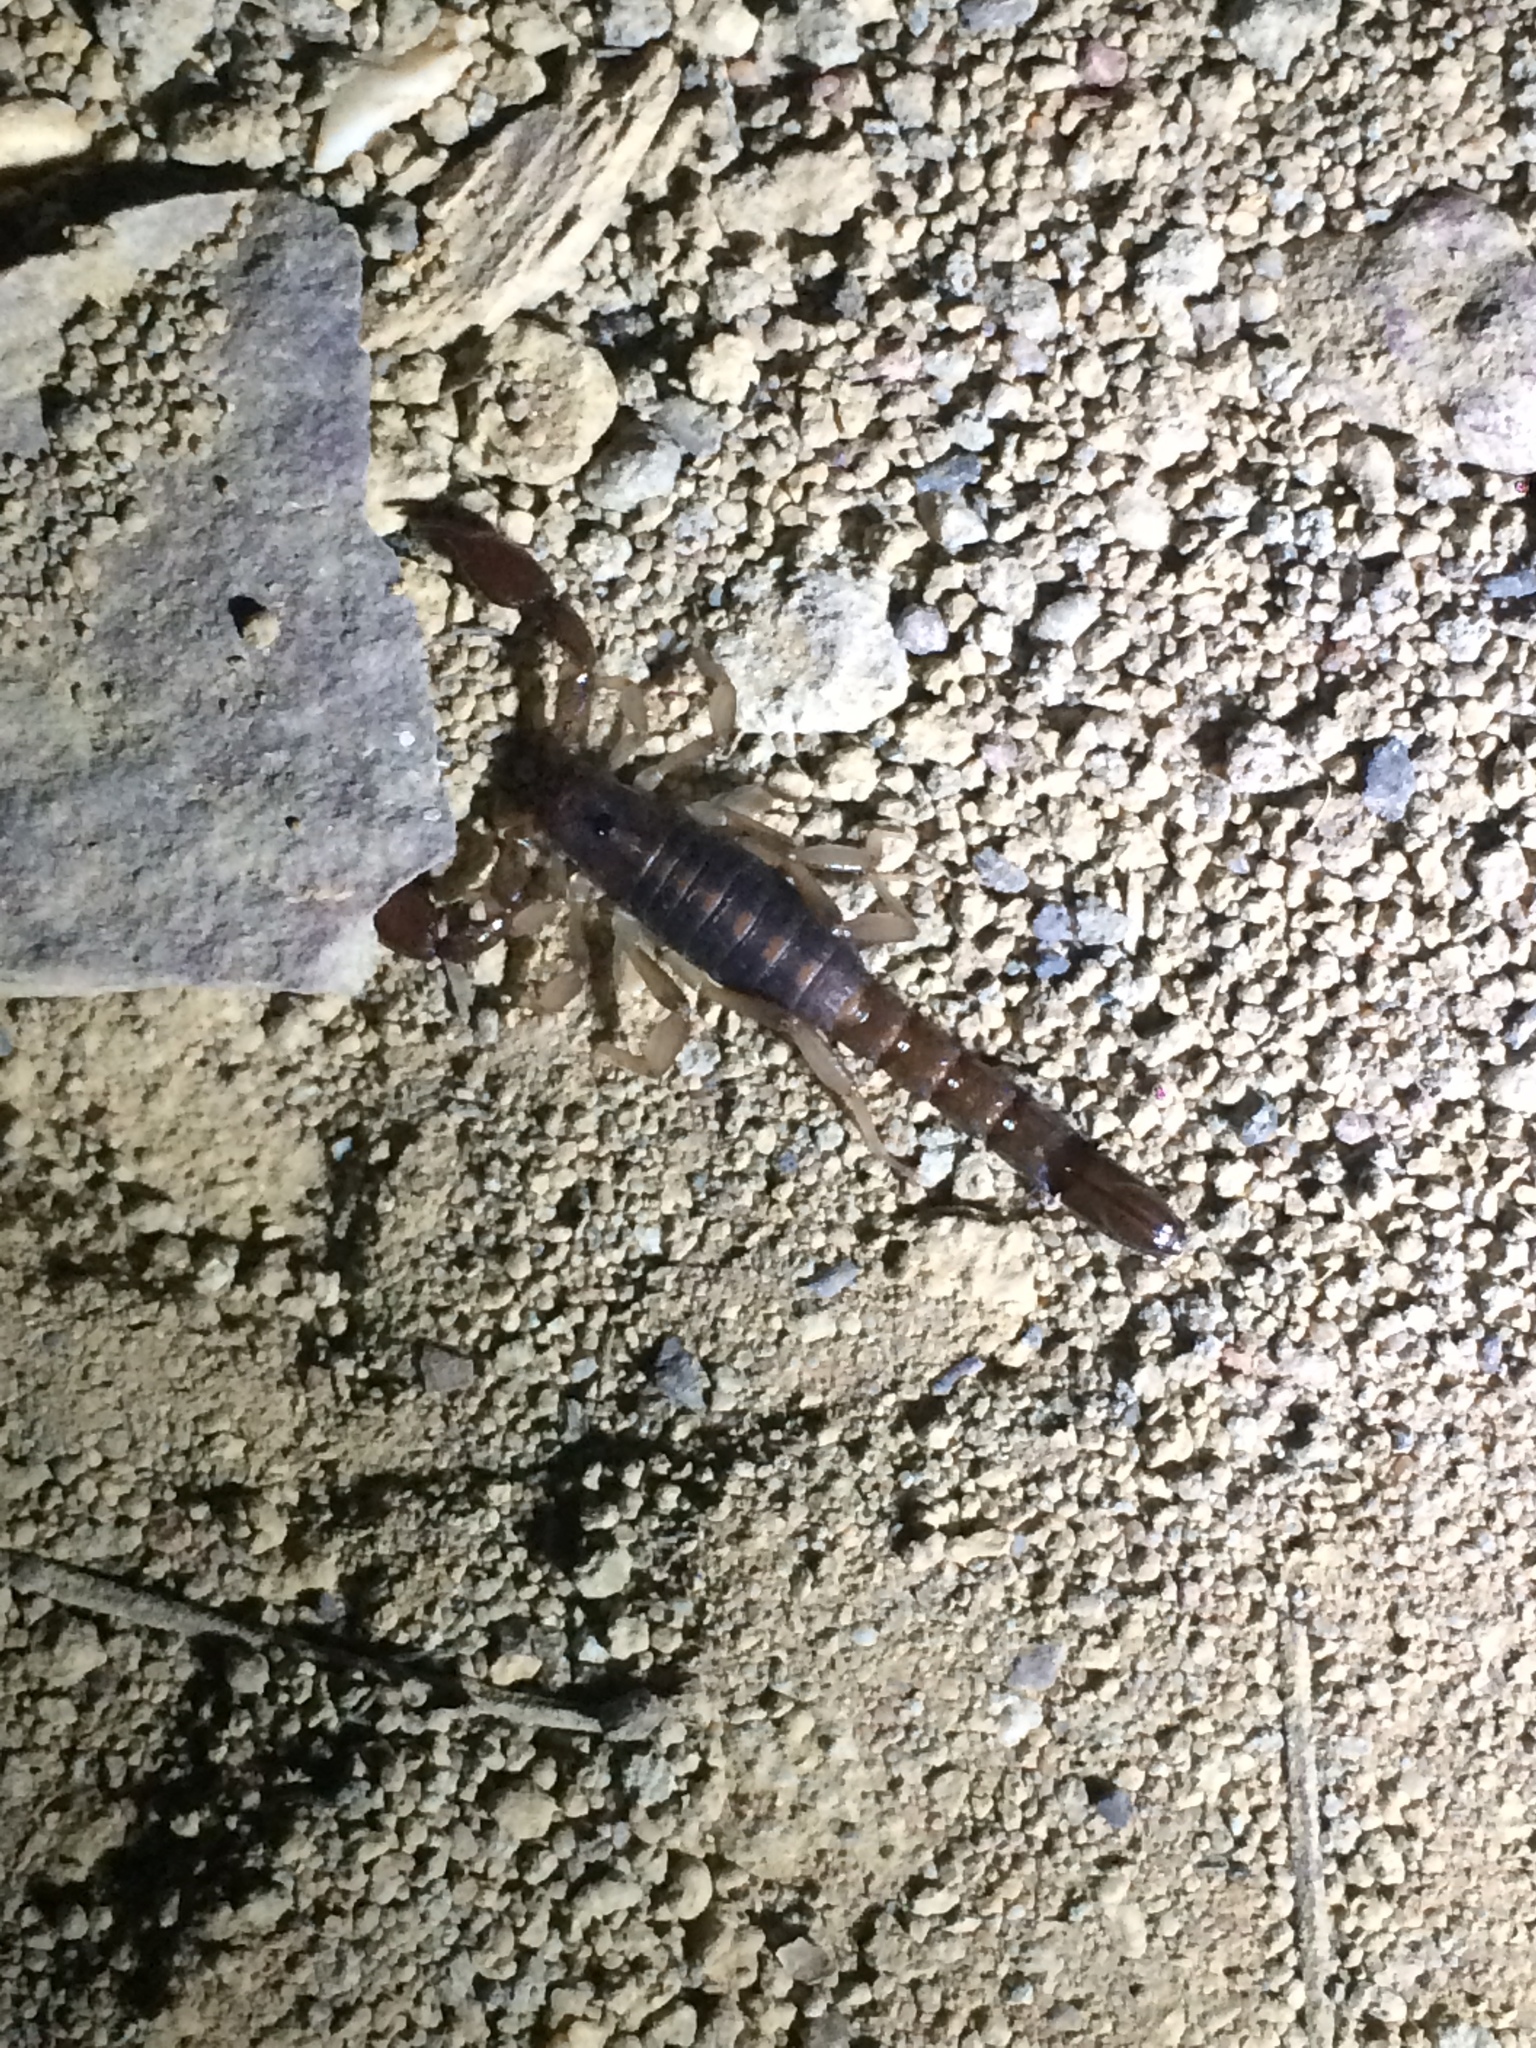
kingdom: Animalia
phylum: Arthropoda
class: Arachnida
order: Scorpiones
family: Bothriuridae
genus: Bothriurus
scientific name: Bothriurus asper
